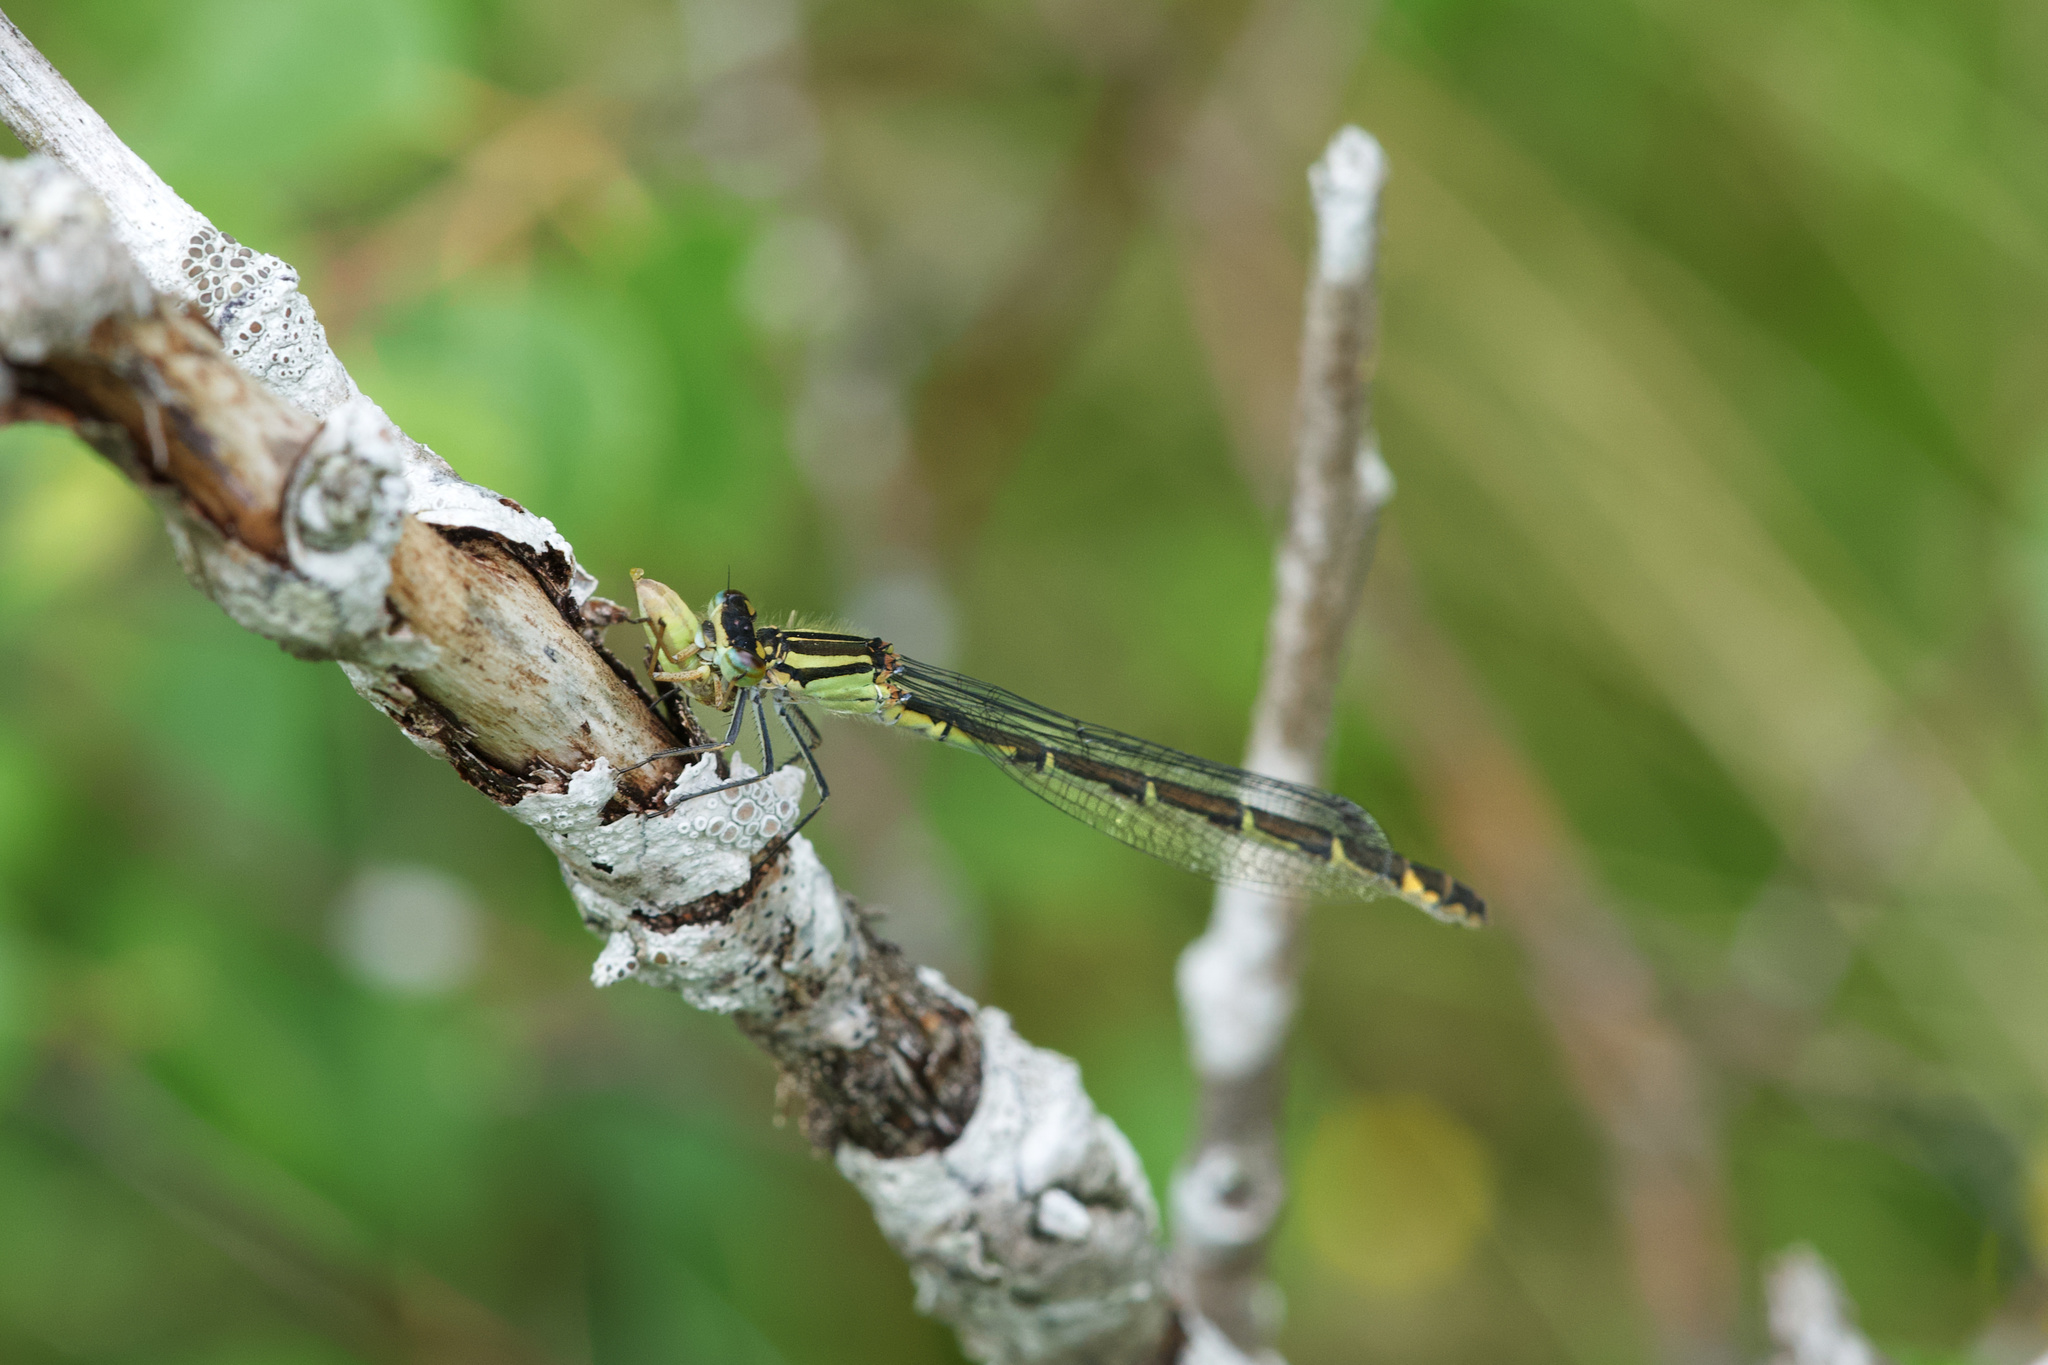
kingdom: Animalia
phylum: Arthropoda
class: Insecta
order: Odonata
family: Coenagrionidae
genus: Enallagma
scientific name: Enallagma cyathigerum
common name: Common blue damselfly
